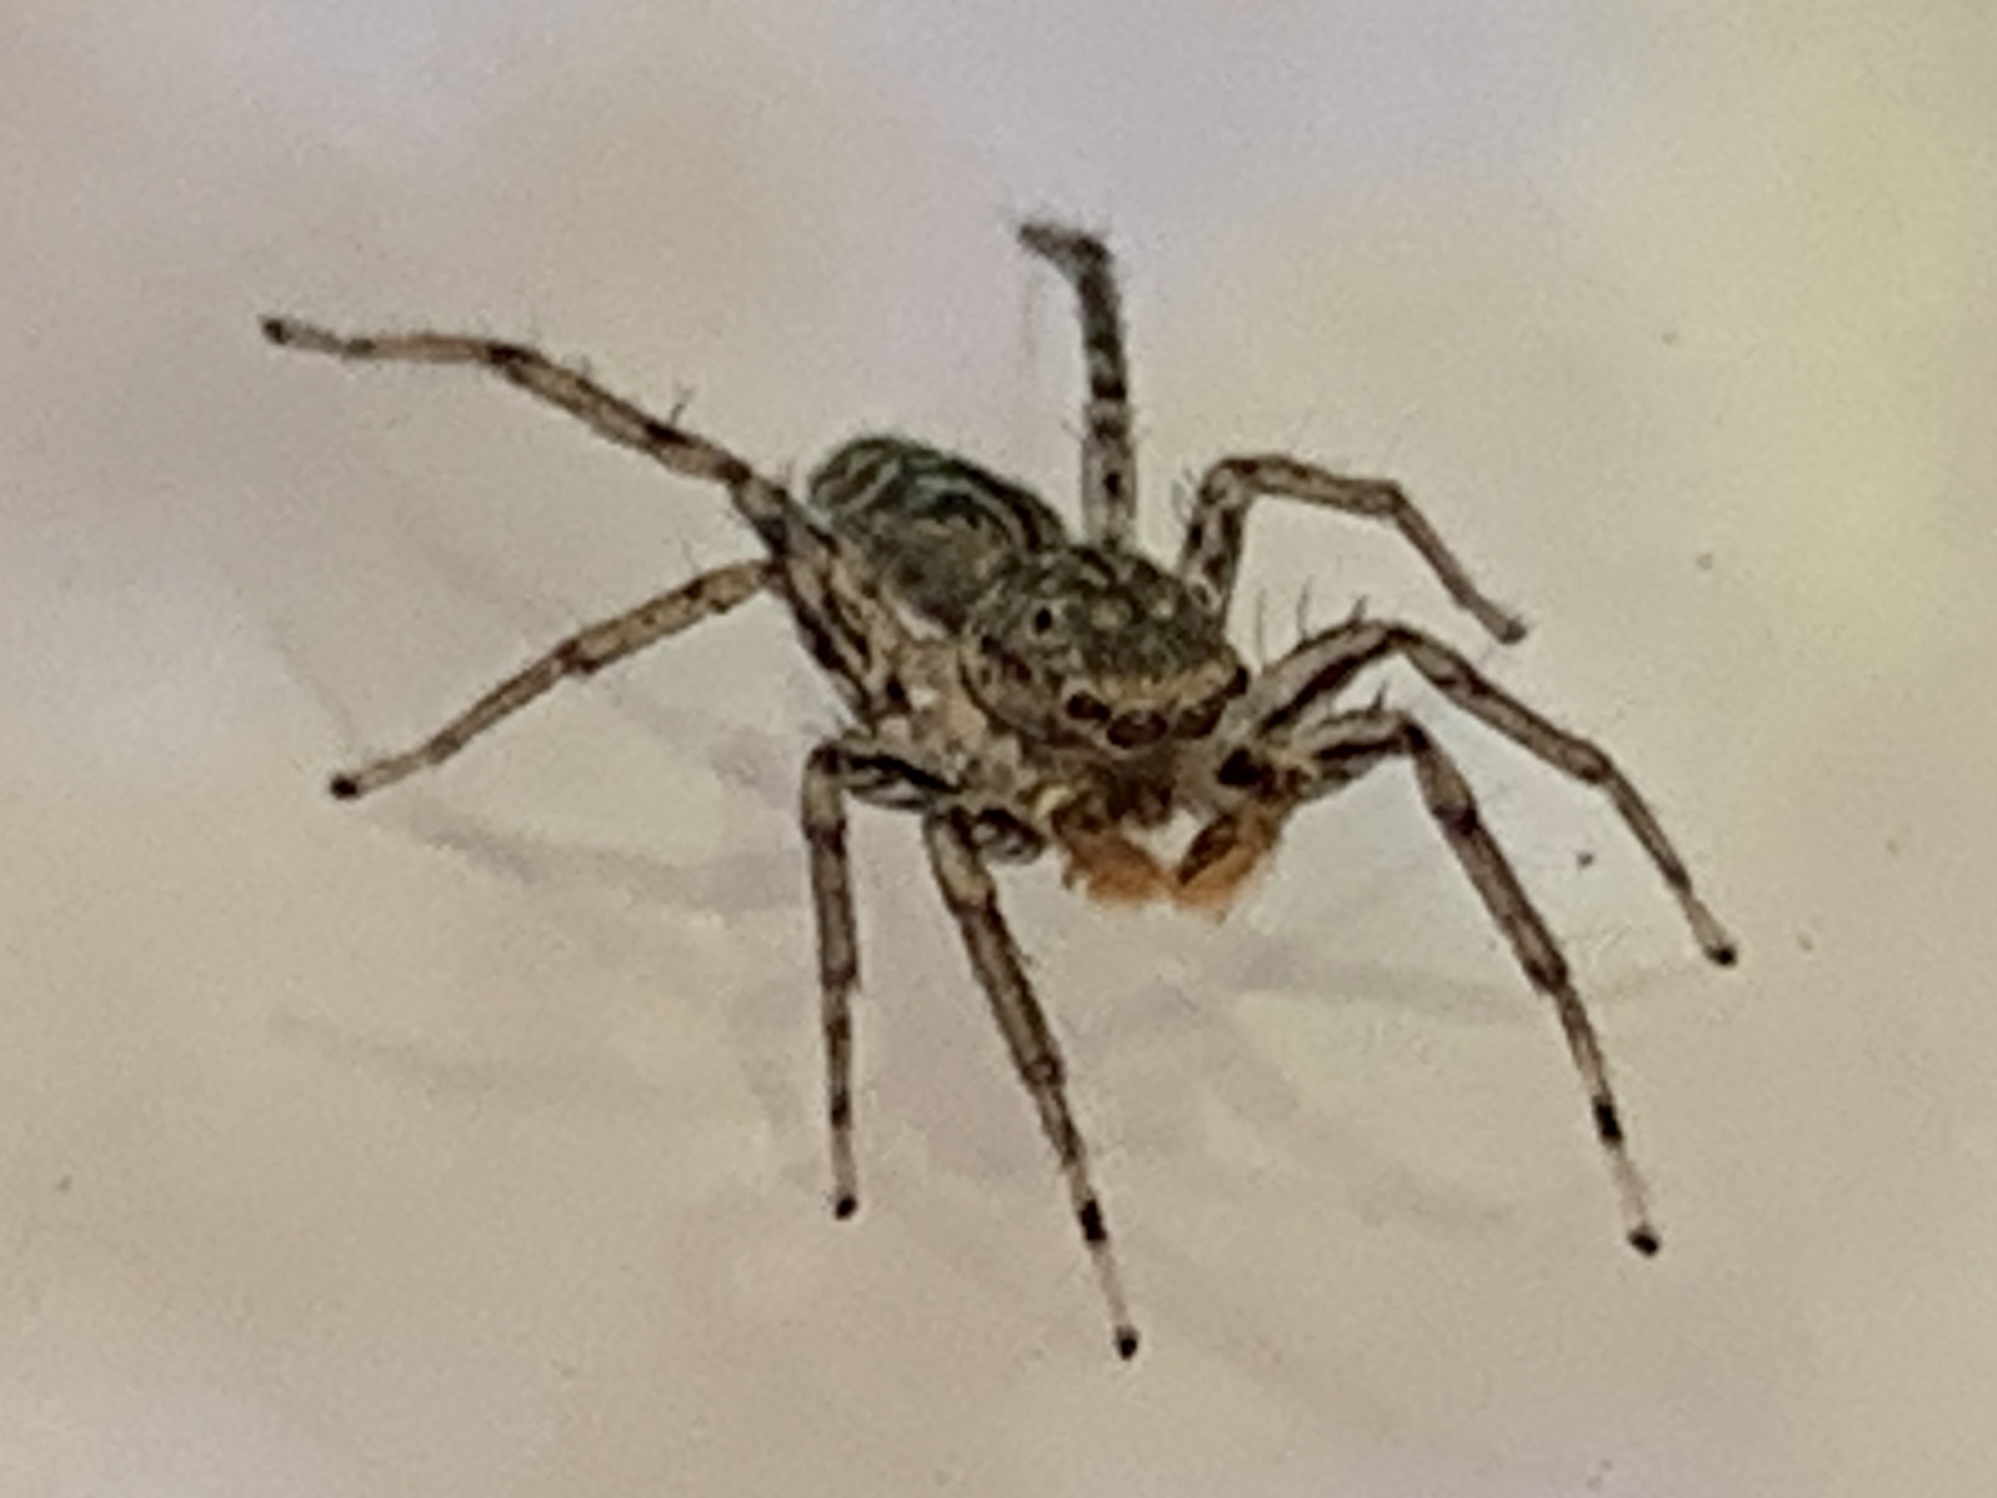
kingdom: Animalia
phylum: Arthropoda
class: Arachnida
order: Araneae
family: Salticidae
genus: Maevia
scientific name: Maevia inclemens
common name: Dimorphic jumper
